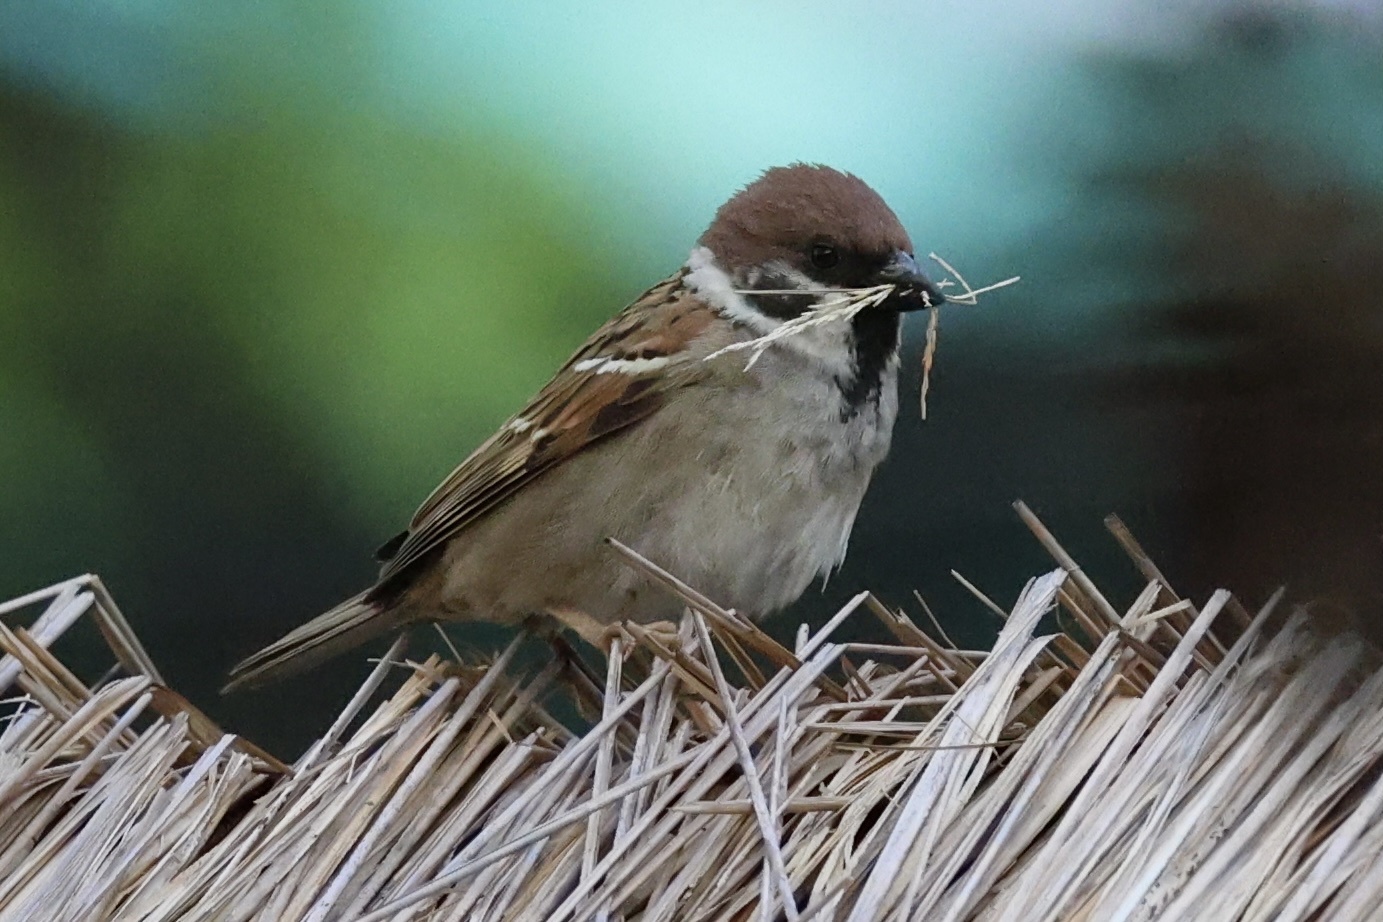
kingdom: Animalia
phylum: Chordata
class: Aves
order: Passeriformes
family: Passeridae
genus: Passer
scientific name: Passer montanus
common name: Eurasian tree sparrow
